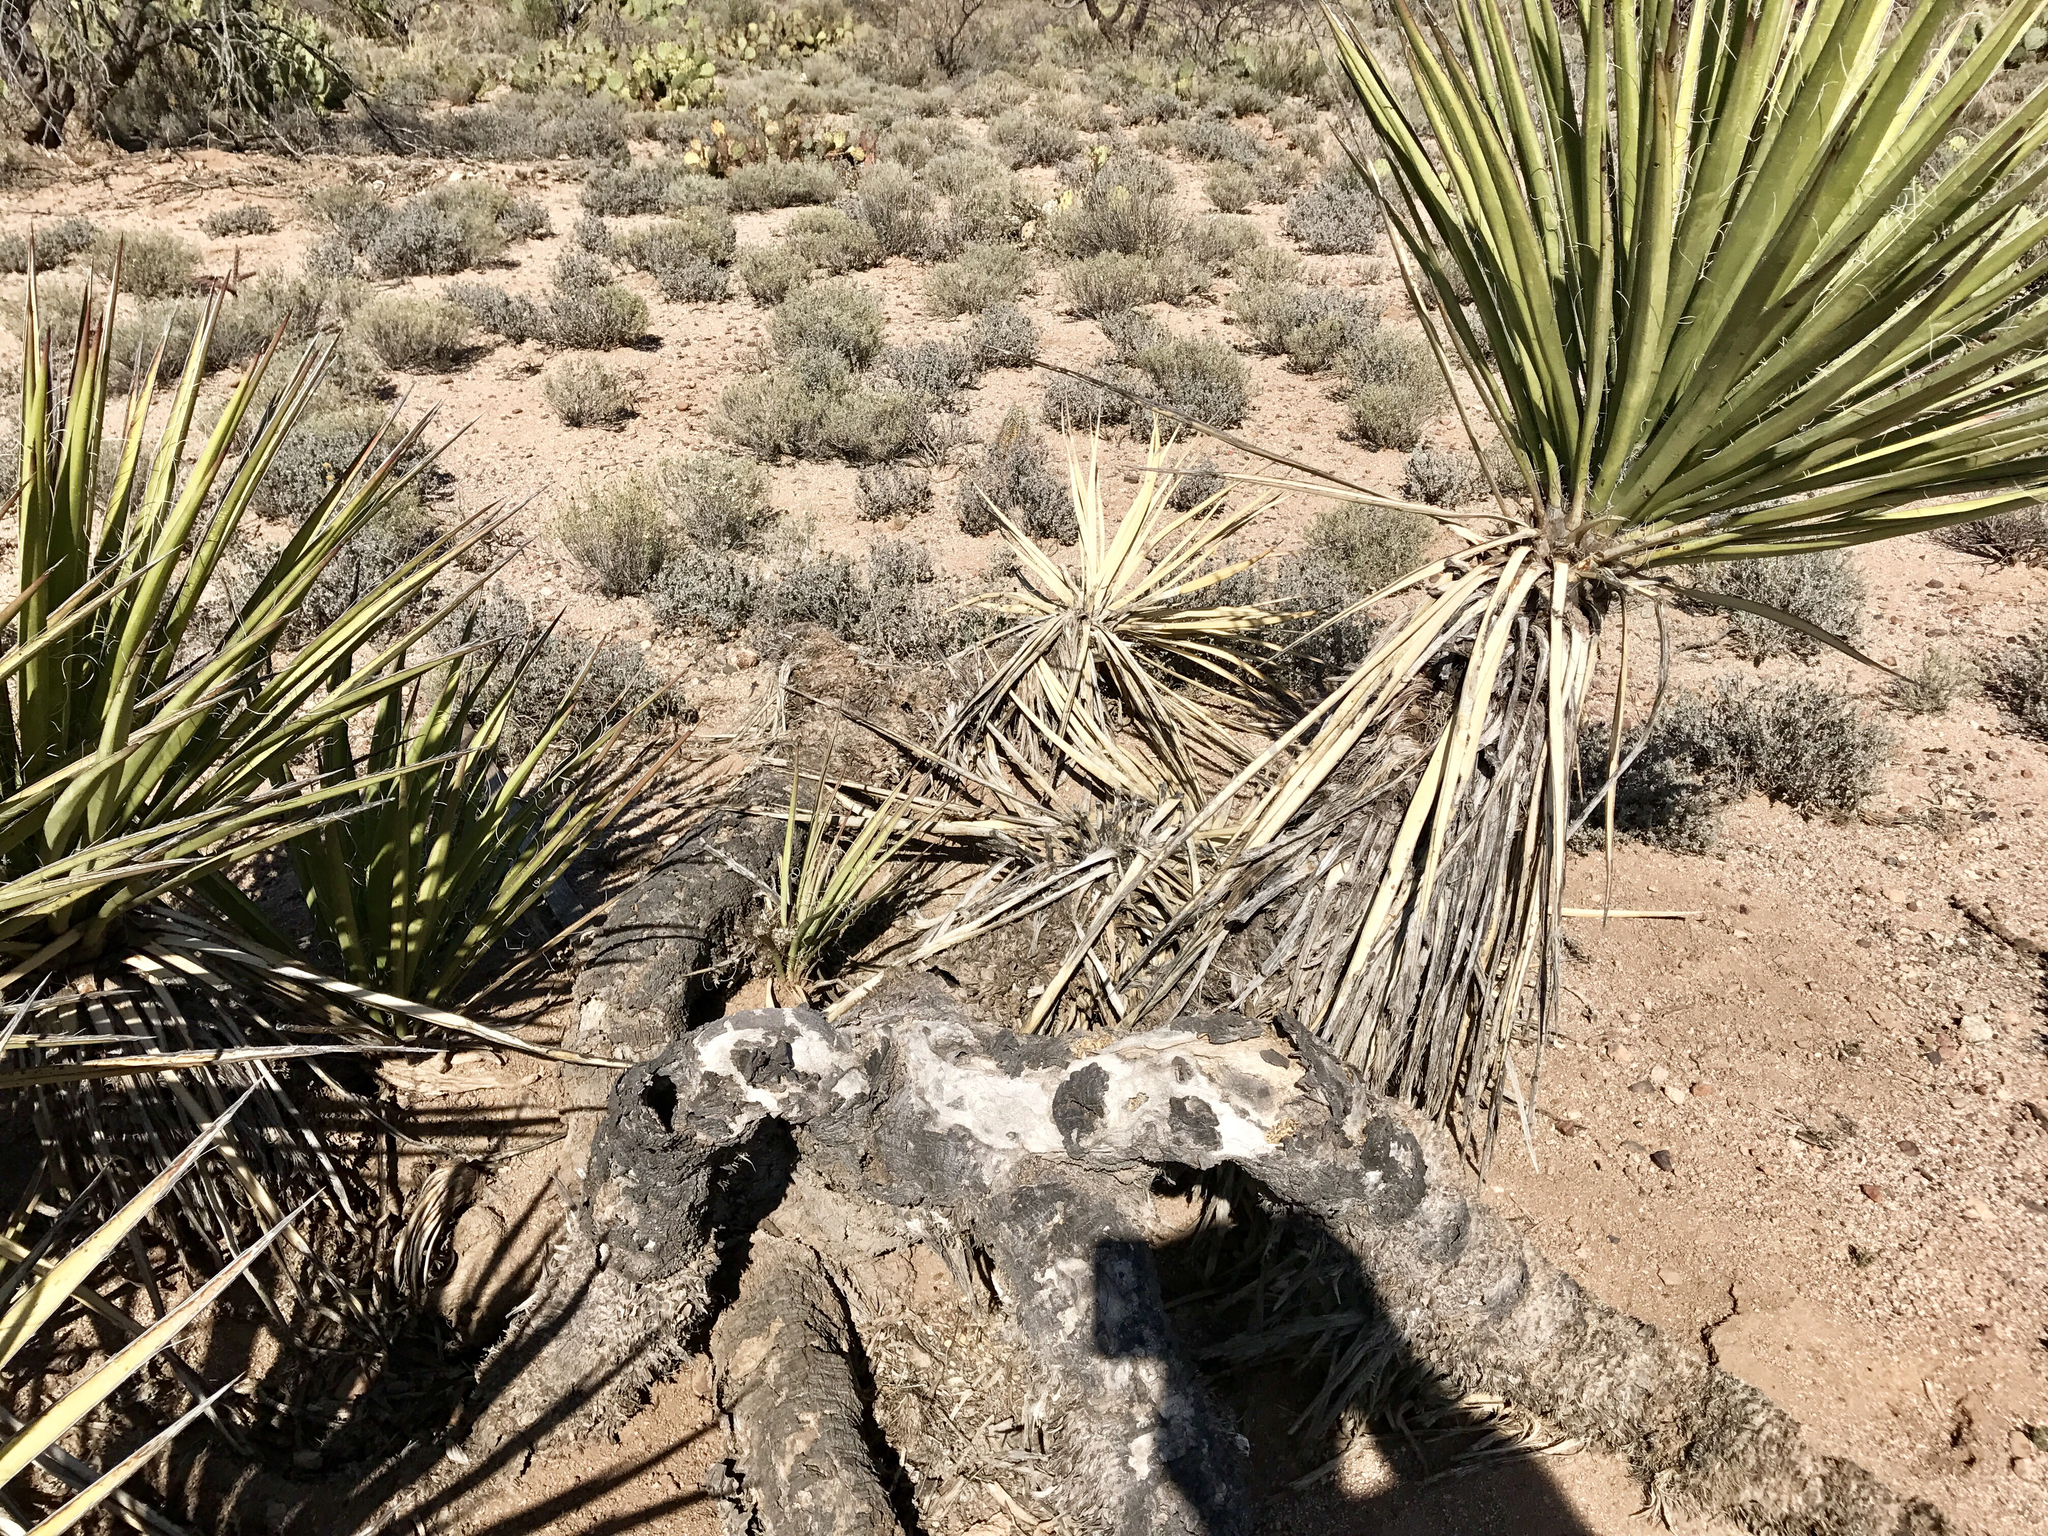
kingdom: Plantae
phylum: Tracheophyta
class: Liliopsida
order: Asparagales
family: Asparagaceae
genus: Yucca
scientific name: Yucca baccata
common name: Banana yucca
